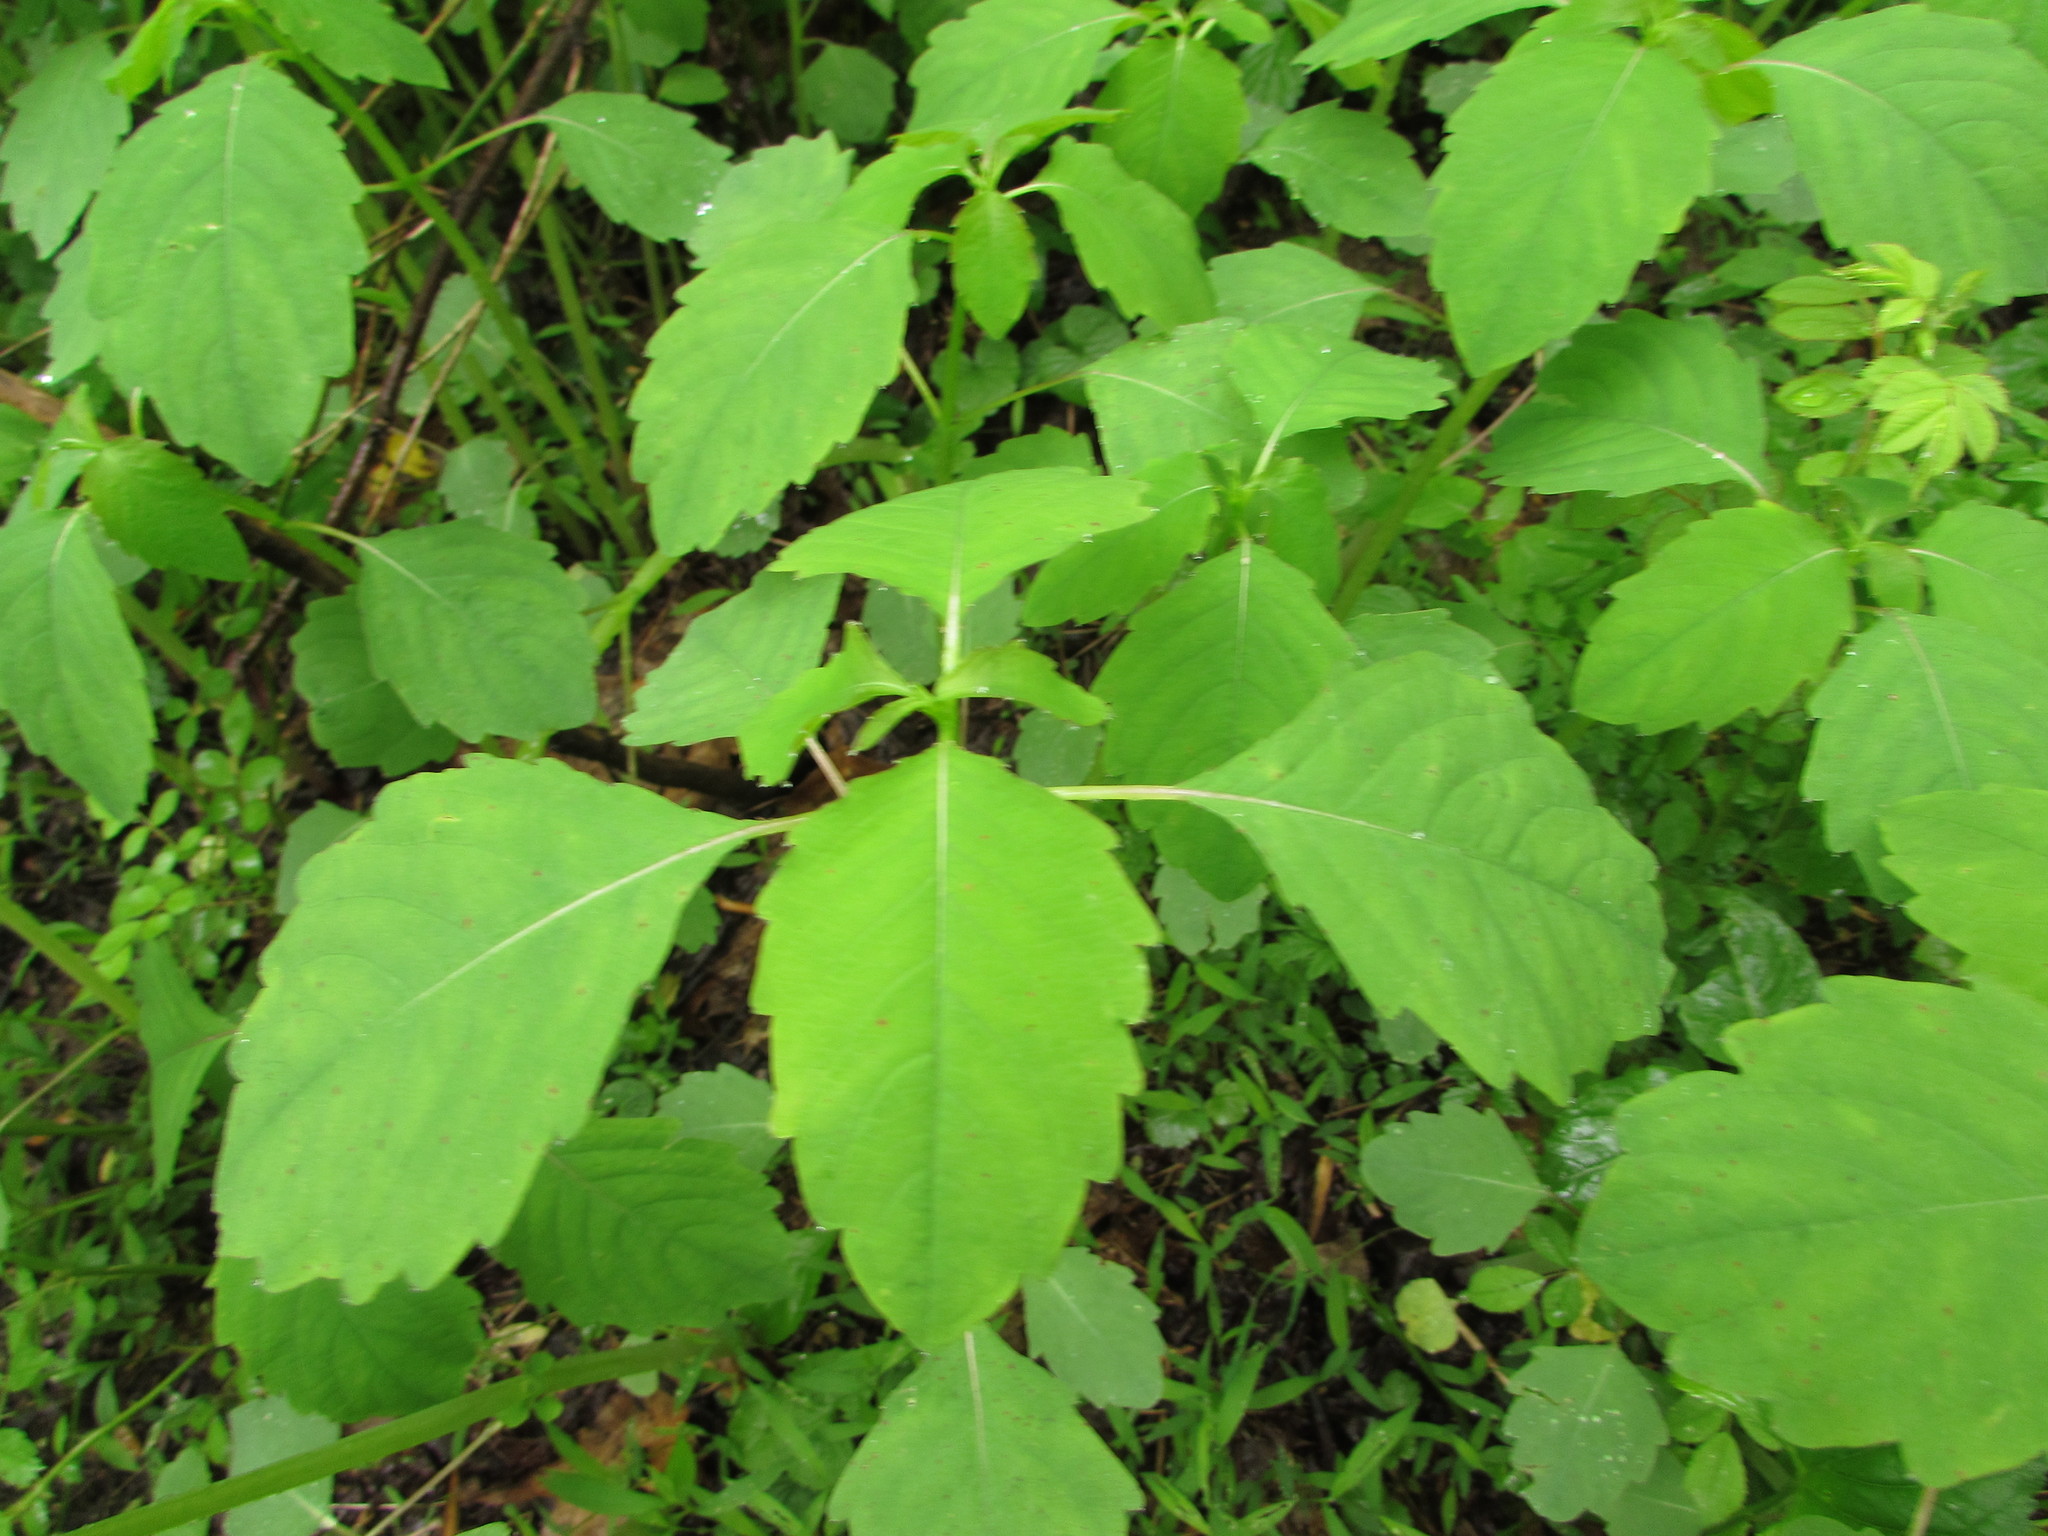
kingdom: Plantae
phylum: Tracheophyta
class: Magnoliopsida
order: Ericales
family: Balsaminaceae
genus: Impatiens
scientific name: Impatiens
